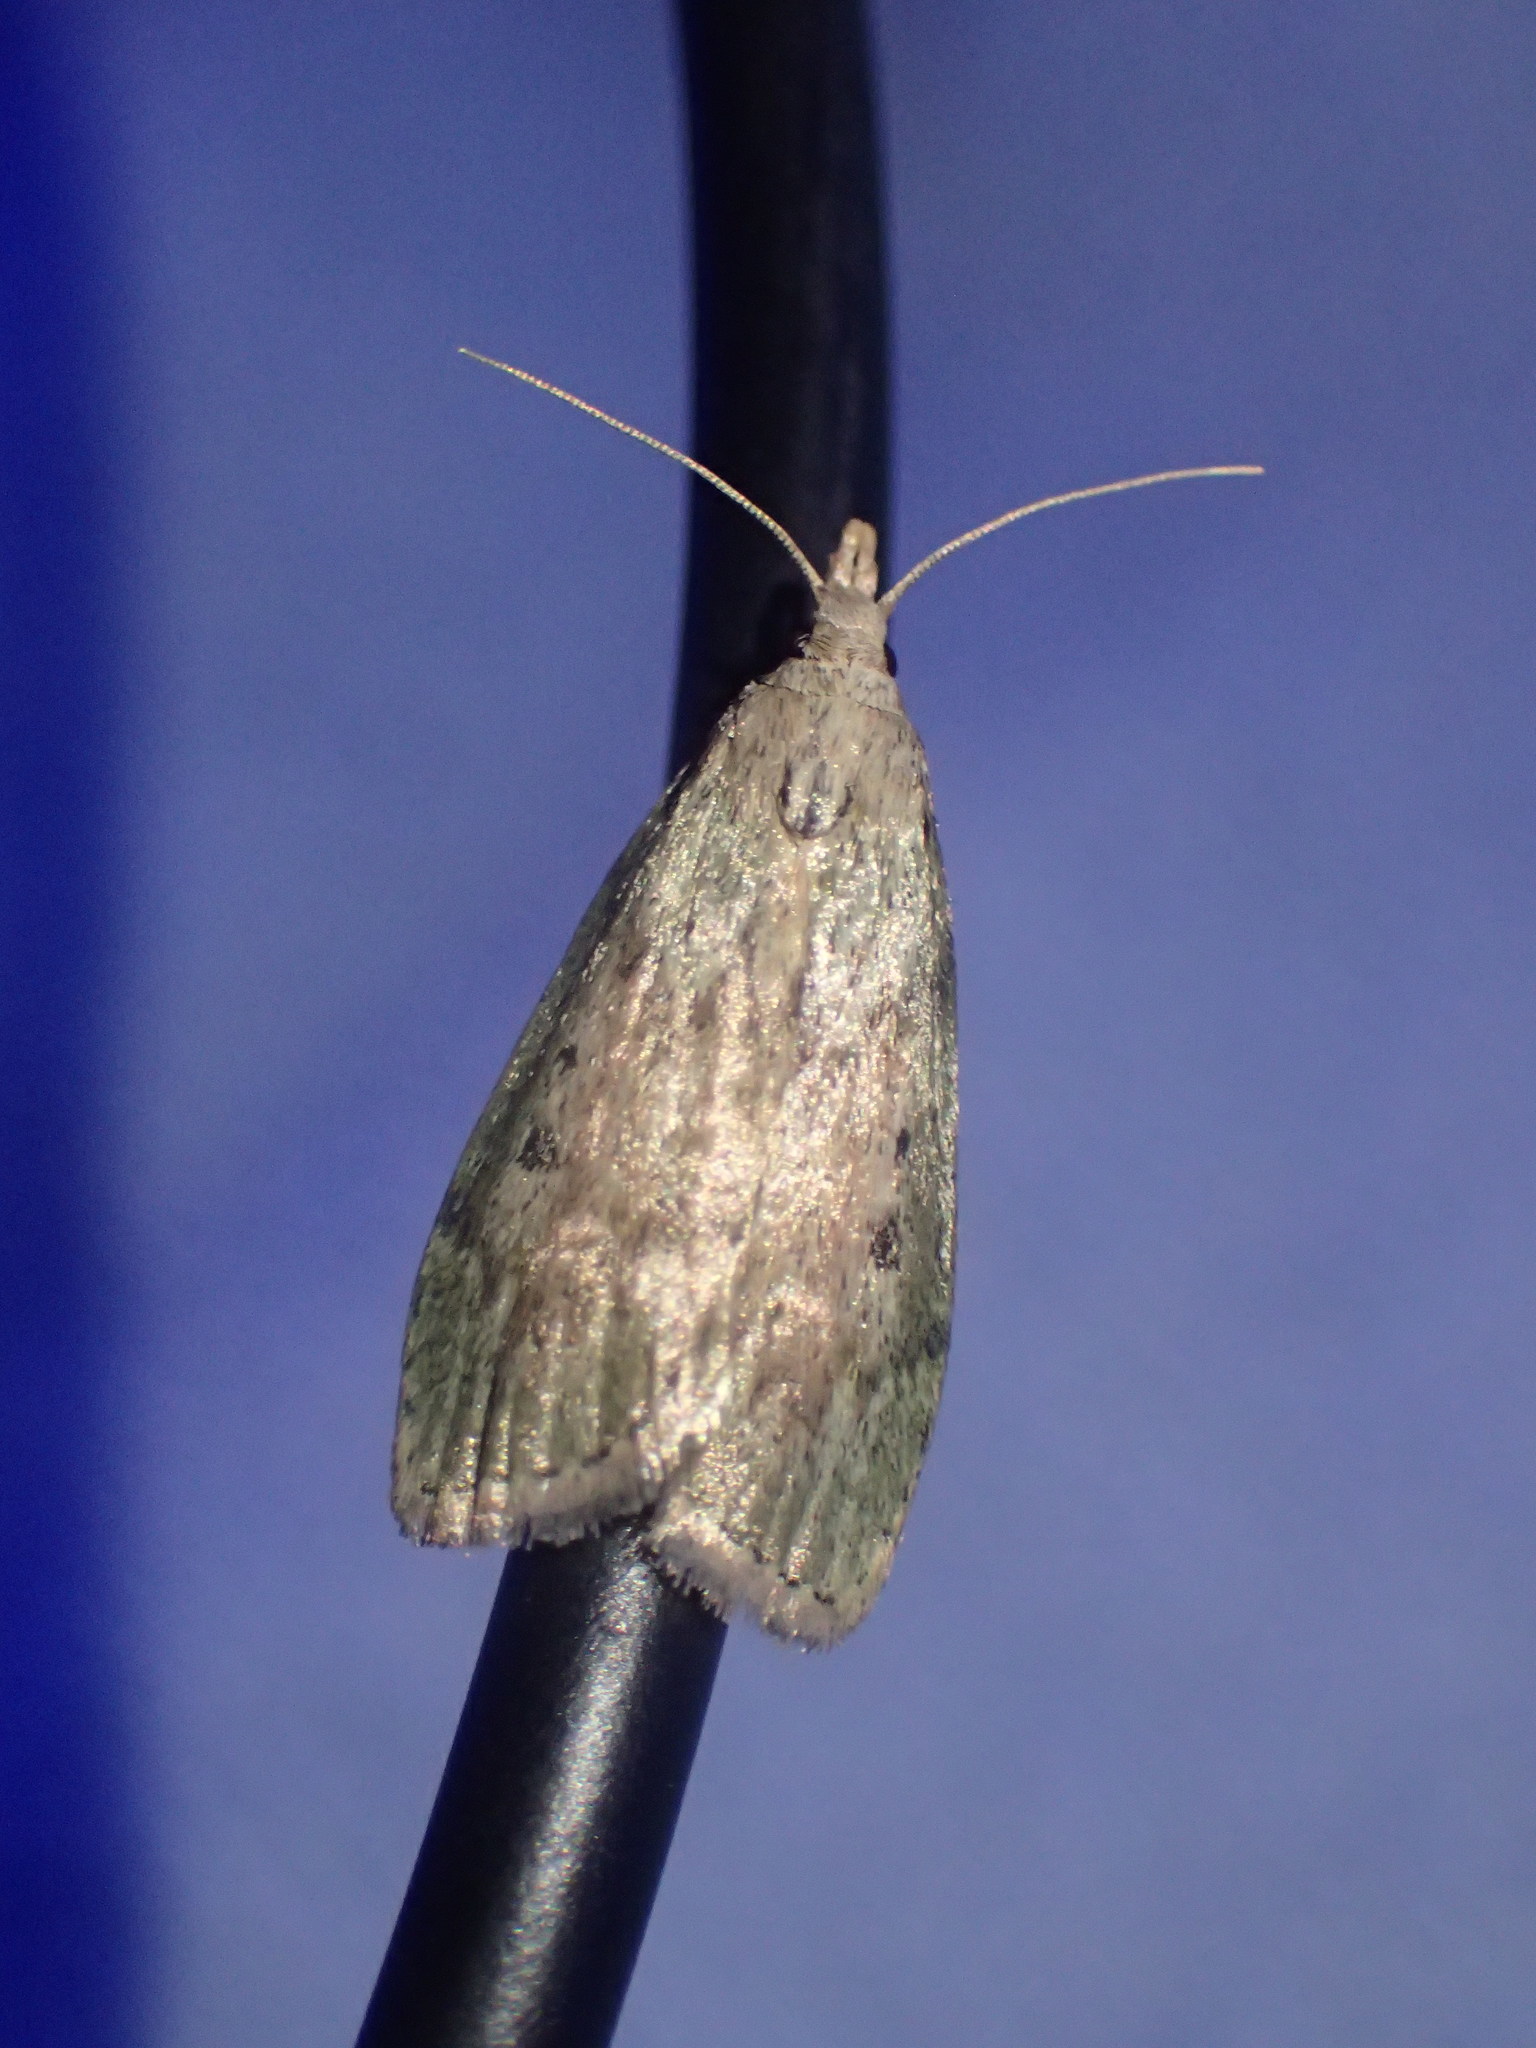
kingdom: Animalia
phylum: Arthropoda
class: Insecta
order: Lepidoptera
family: Pyralidae
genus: Aphomia
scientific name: Aphomia sociella
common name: Bee moth
